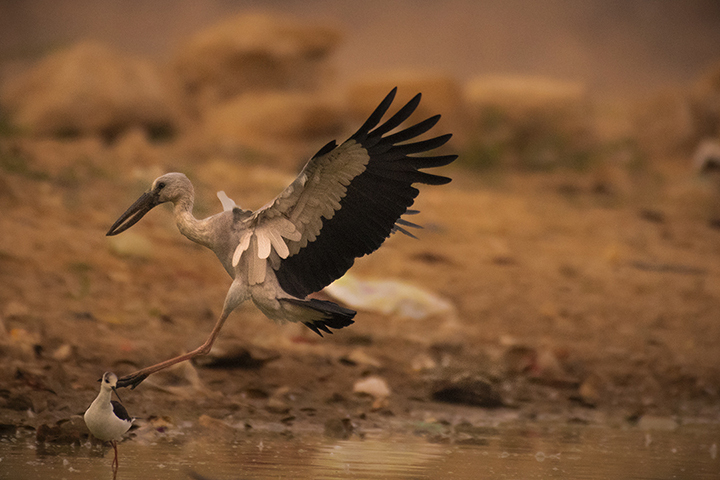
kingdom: Animalia
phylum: Chordata
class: Aves
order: Ciconiiformes
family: Ciconiidae
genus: Anastomus
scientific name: Anastomus oscitans
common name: Asian openbill
